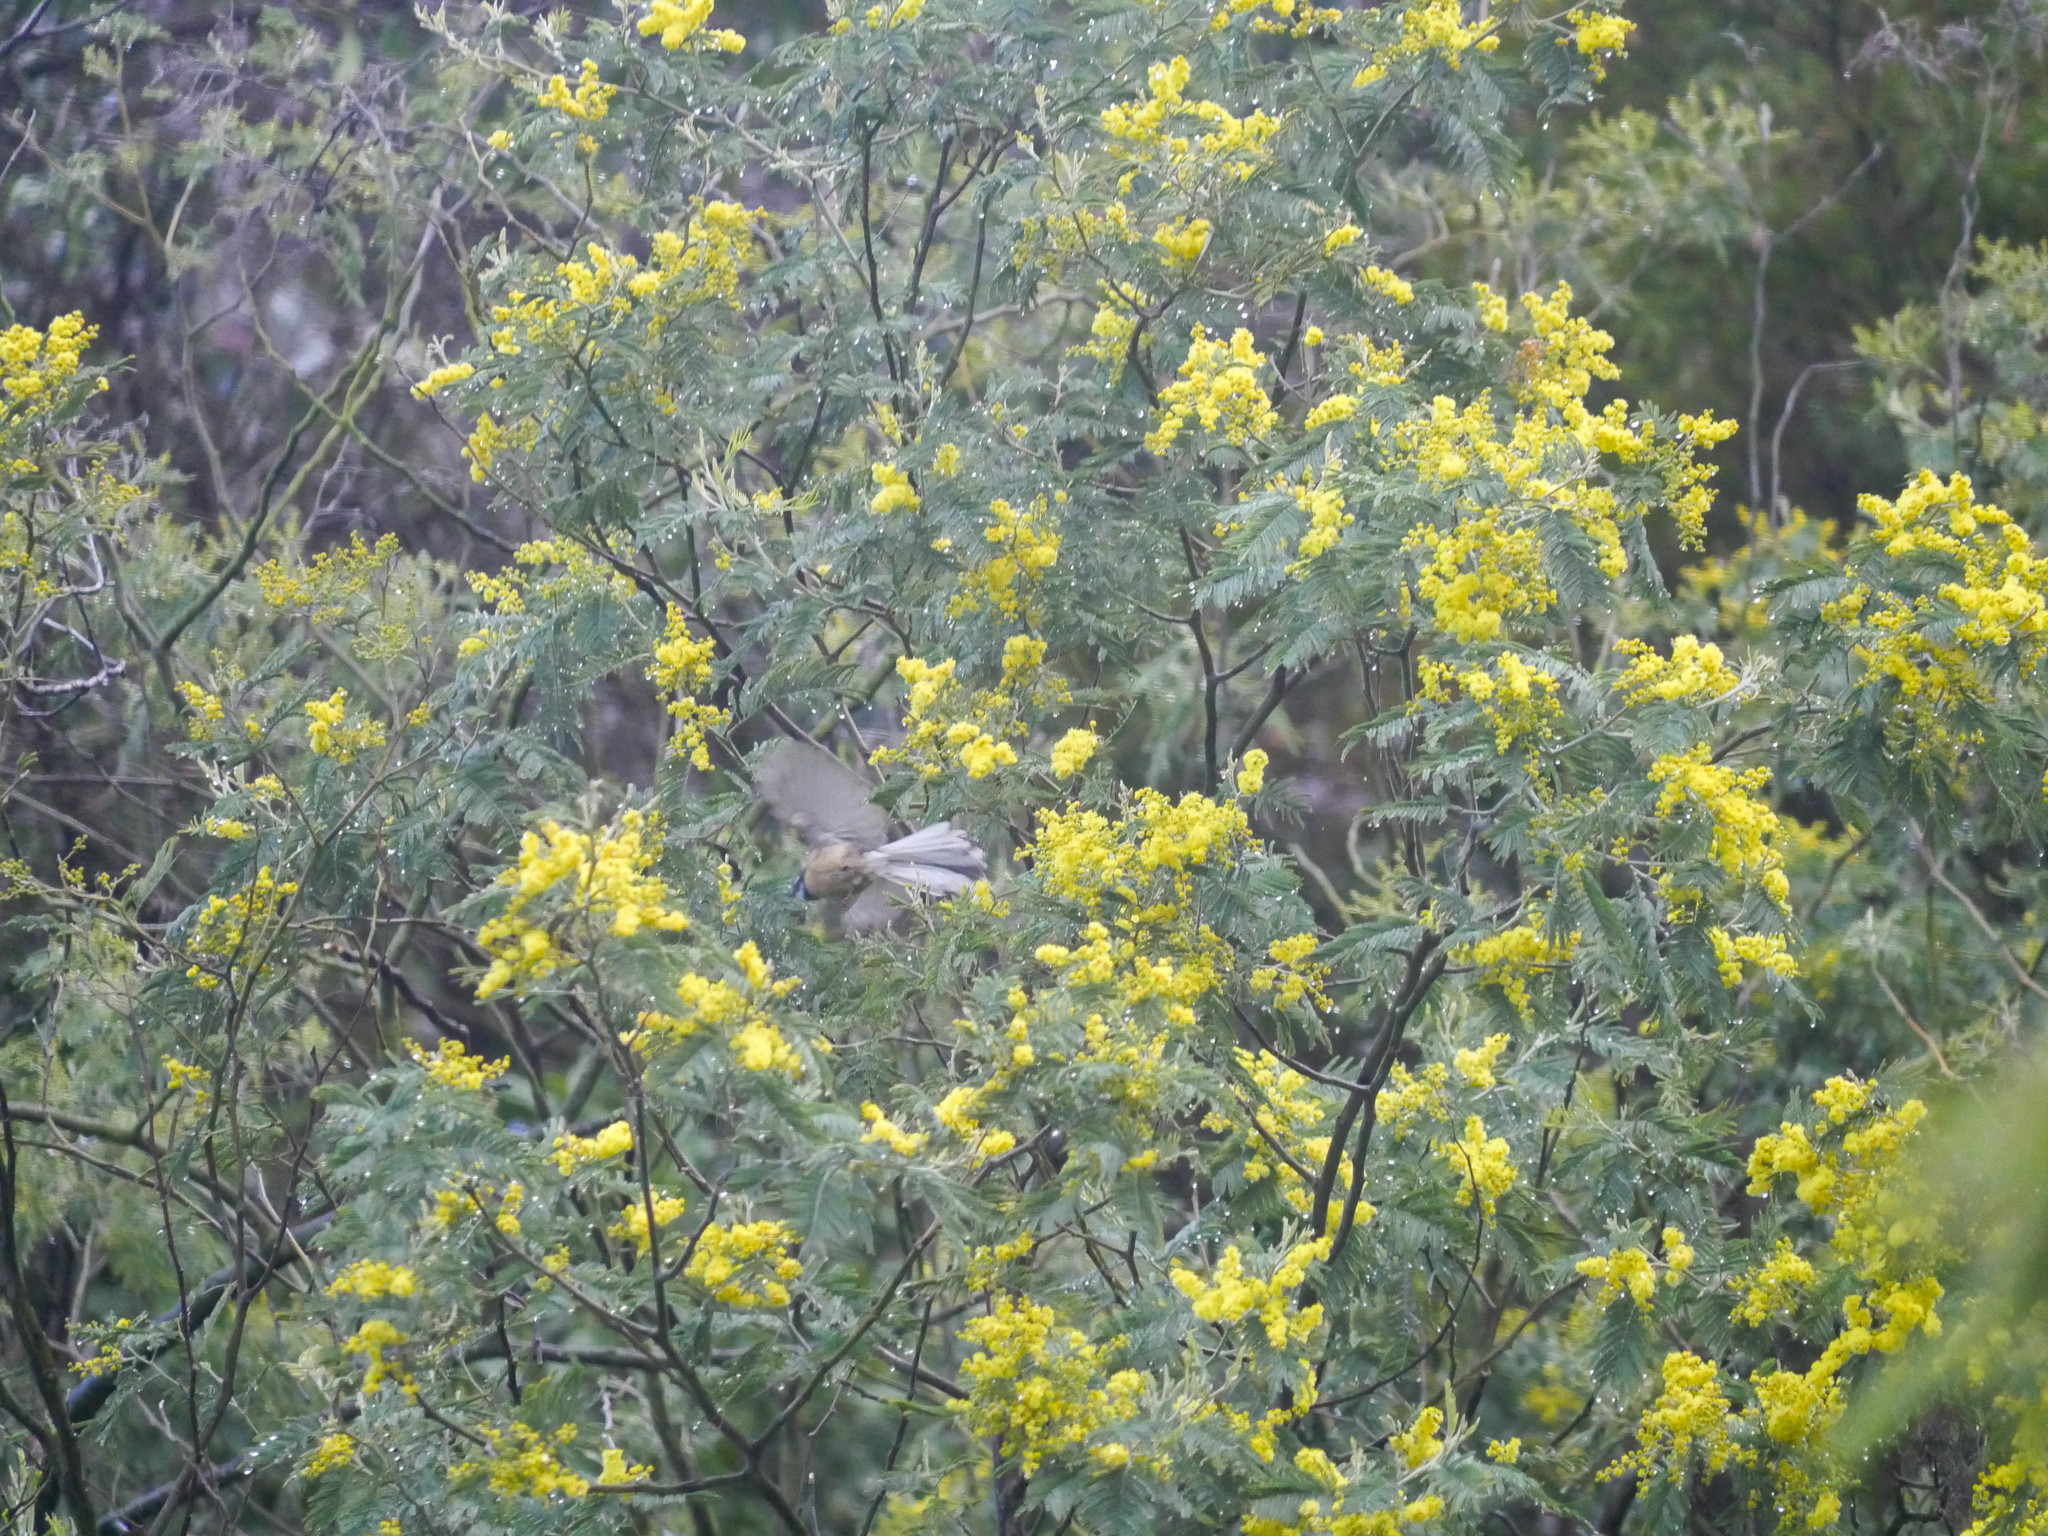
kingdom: Animalia
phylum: Chordata
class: Aves
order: Passeriformes
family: Rhipiduridae
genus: Rhipidura
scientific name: Rhipidura fuliginosa
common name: New zealand fantail
